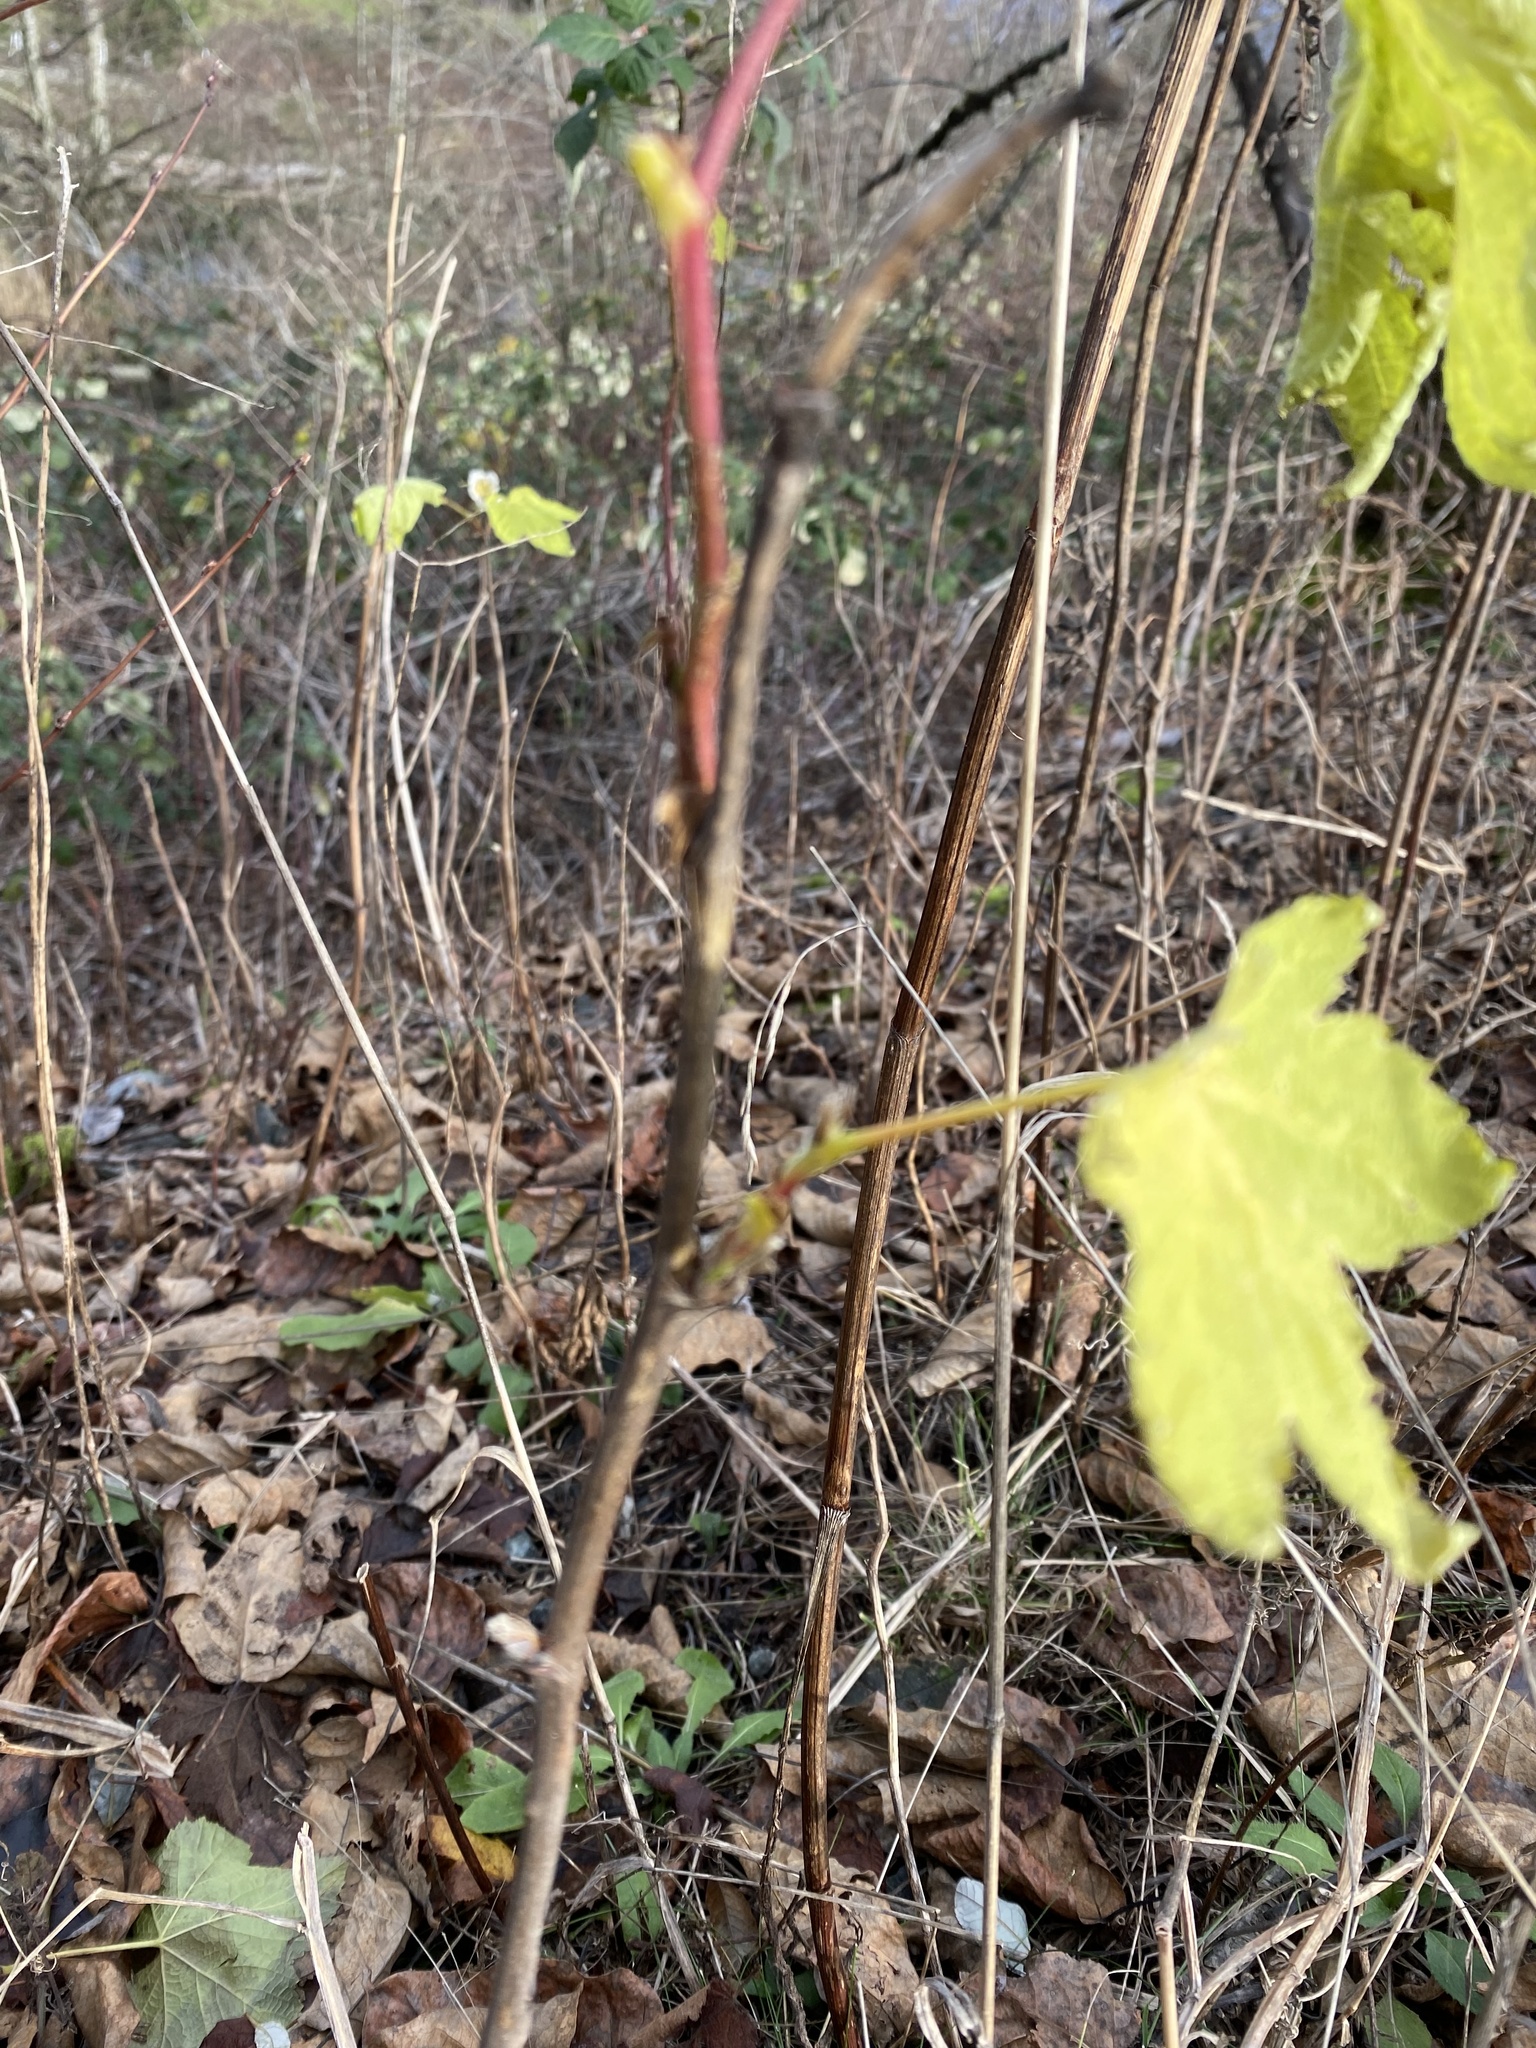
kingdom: Plantae
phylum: Tracheophyta
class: Magnoliopsida
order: Rosales
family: Rosaceae
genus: Rubus
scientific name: Rubus parviflorus
